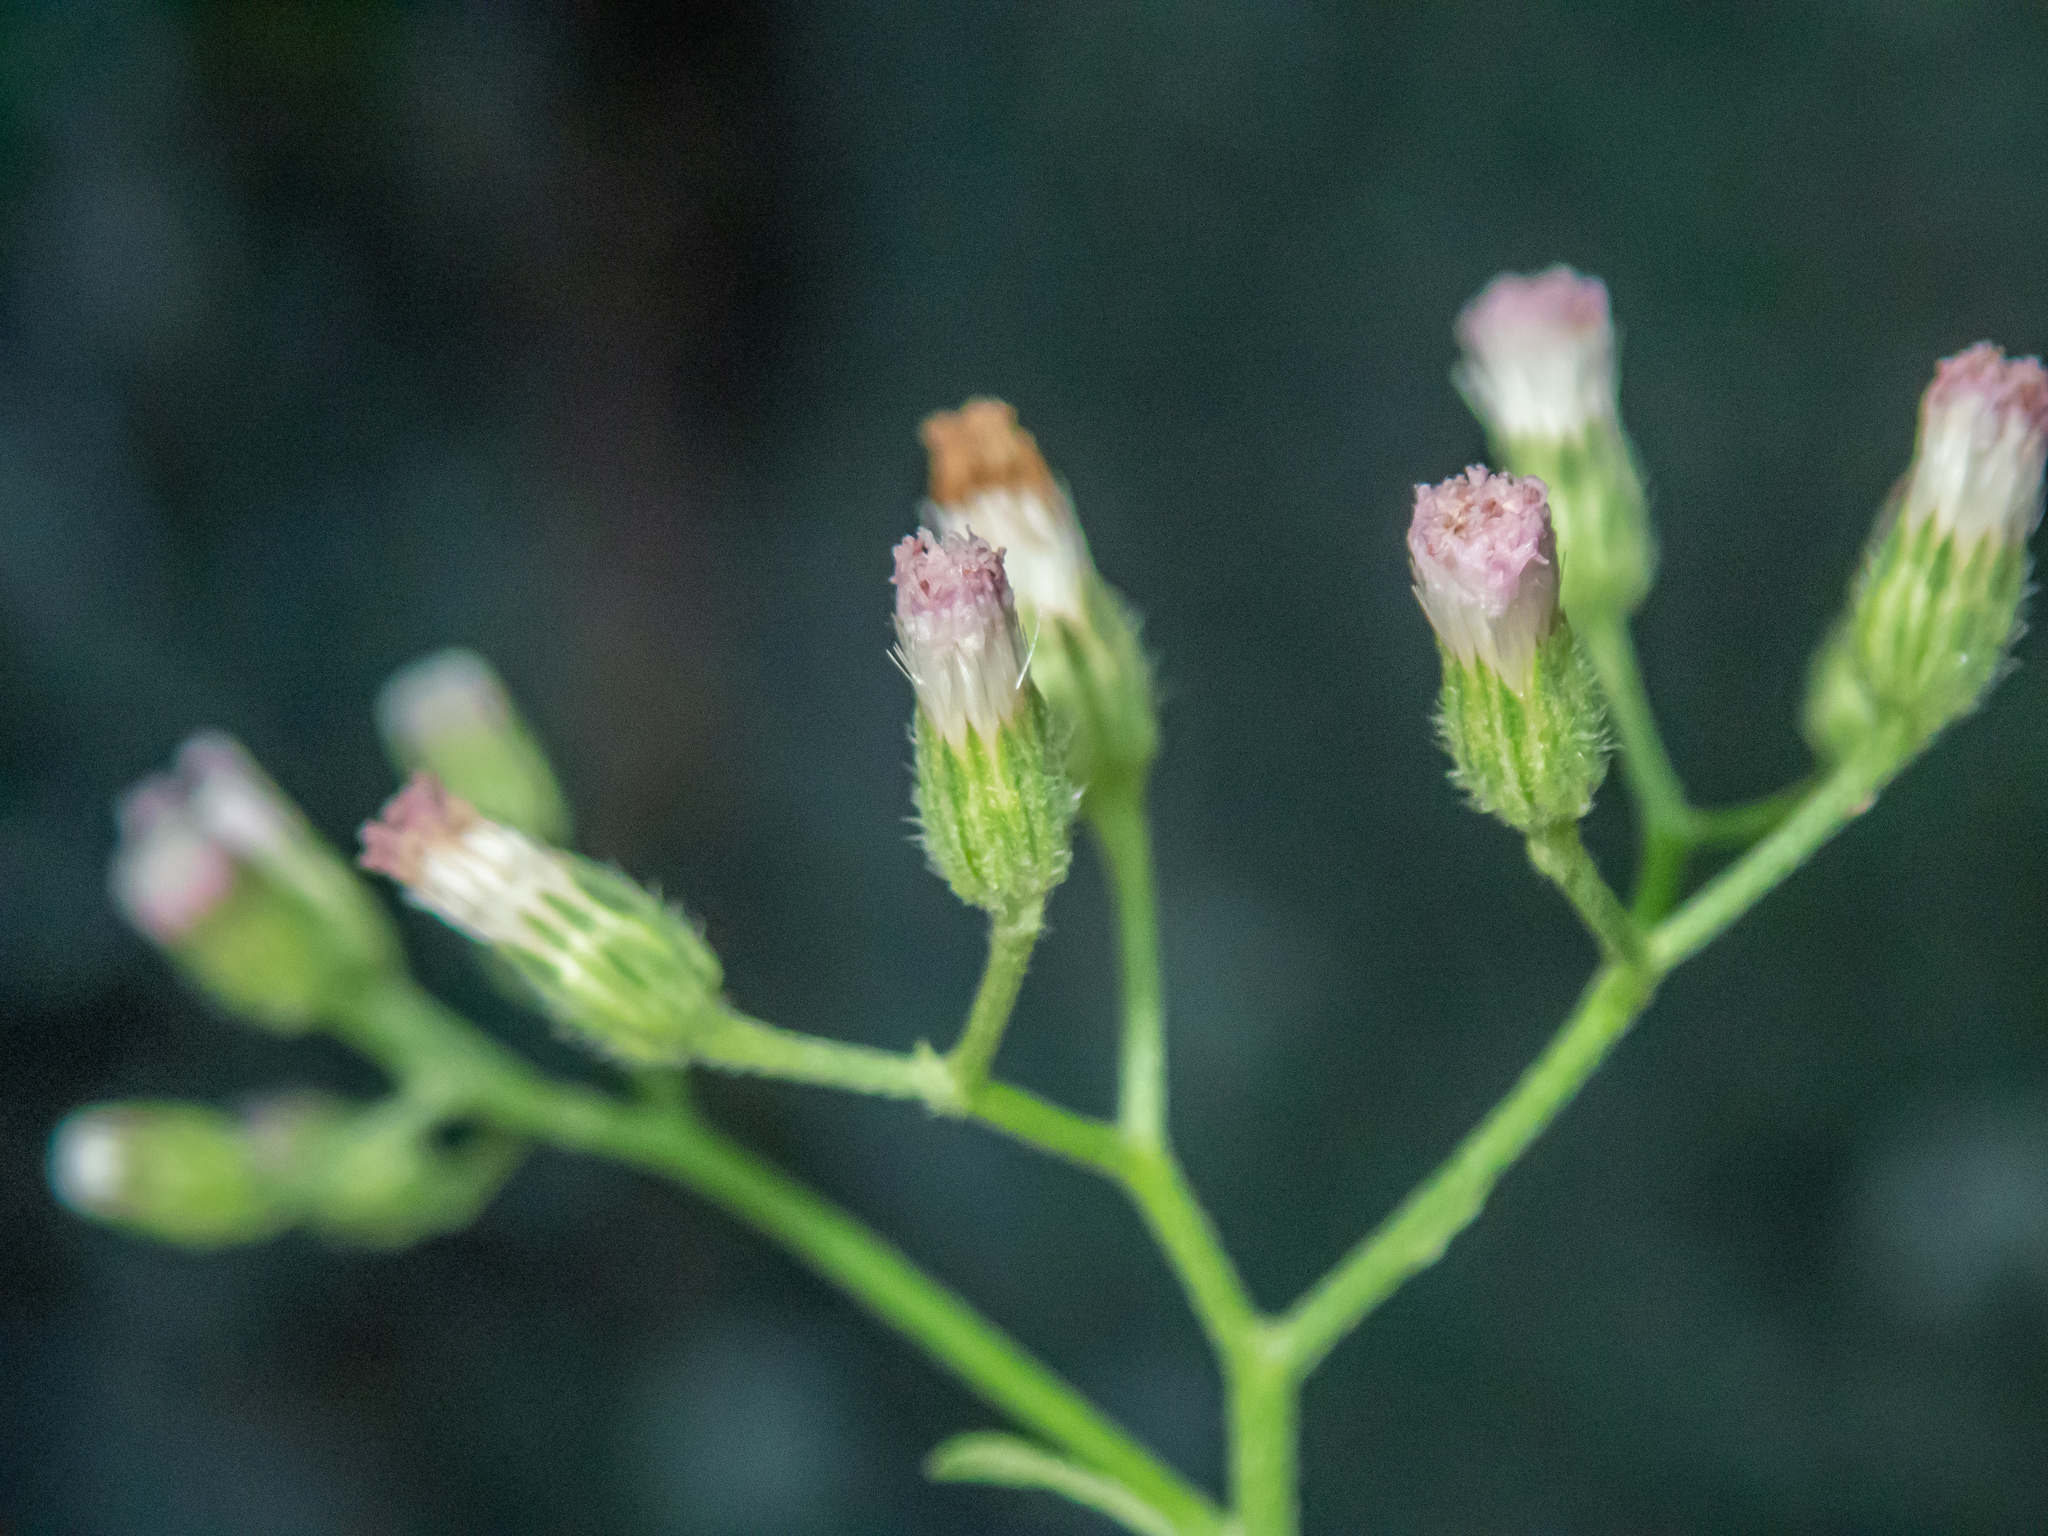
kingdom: Plantae
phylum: Tracheophyta
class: Magnoliopsida
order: Asterales
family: Asteraceae
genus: Cyanthillium
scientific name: Cyanthillium cinereum
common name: Little ironweed
